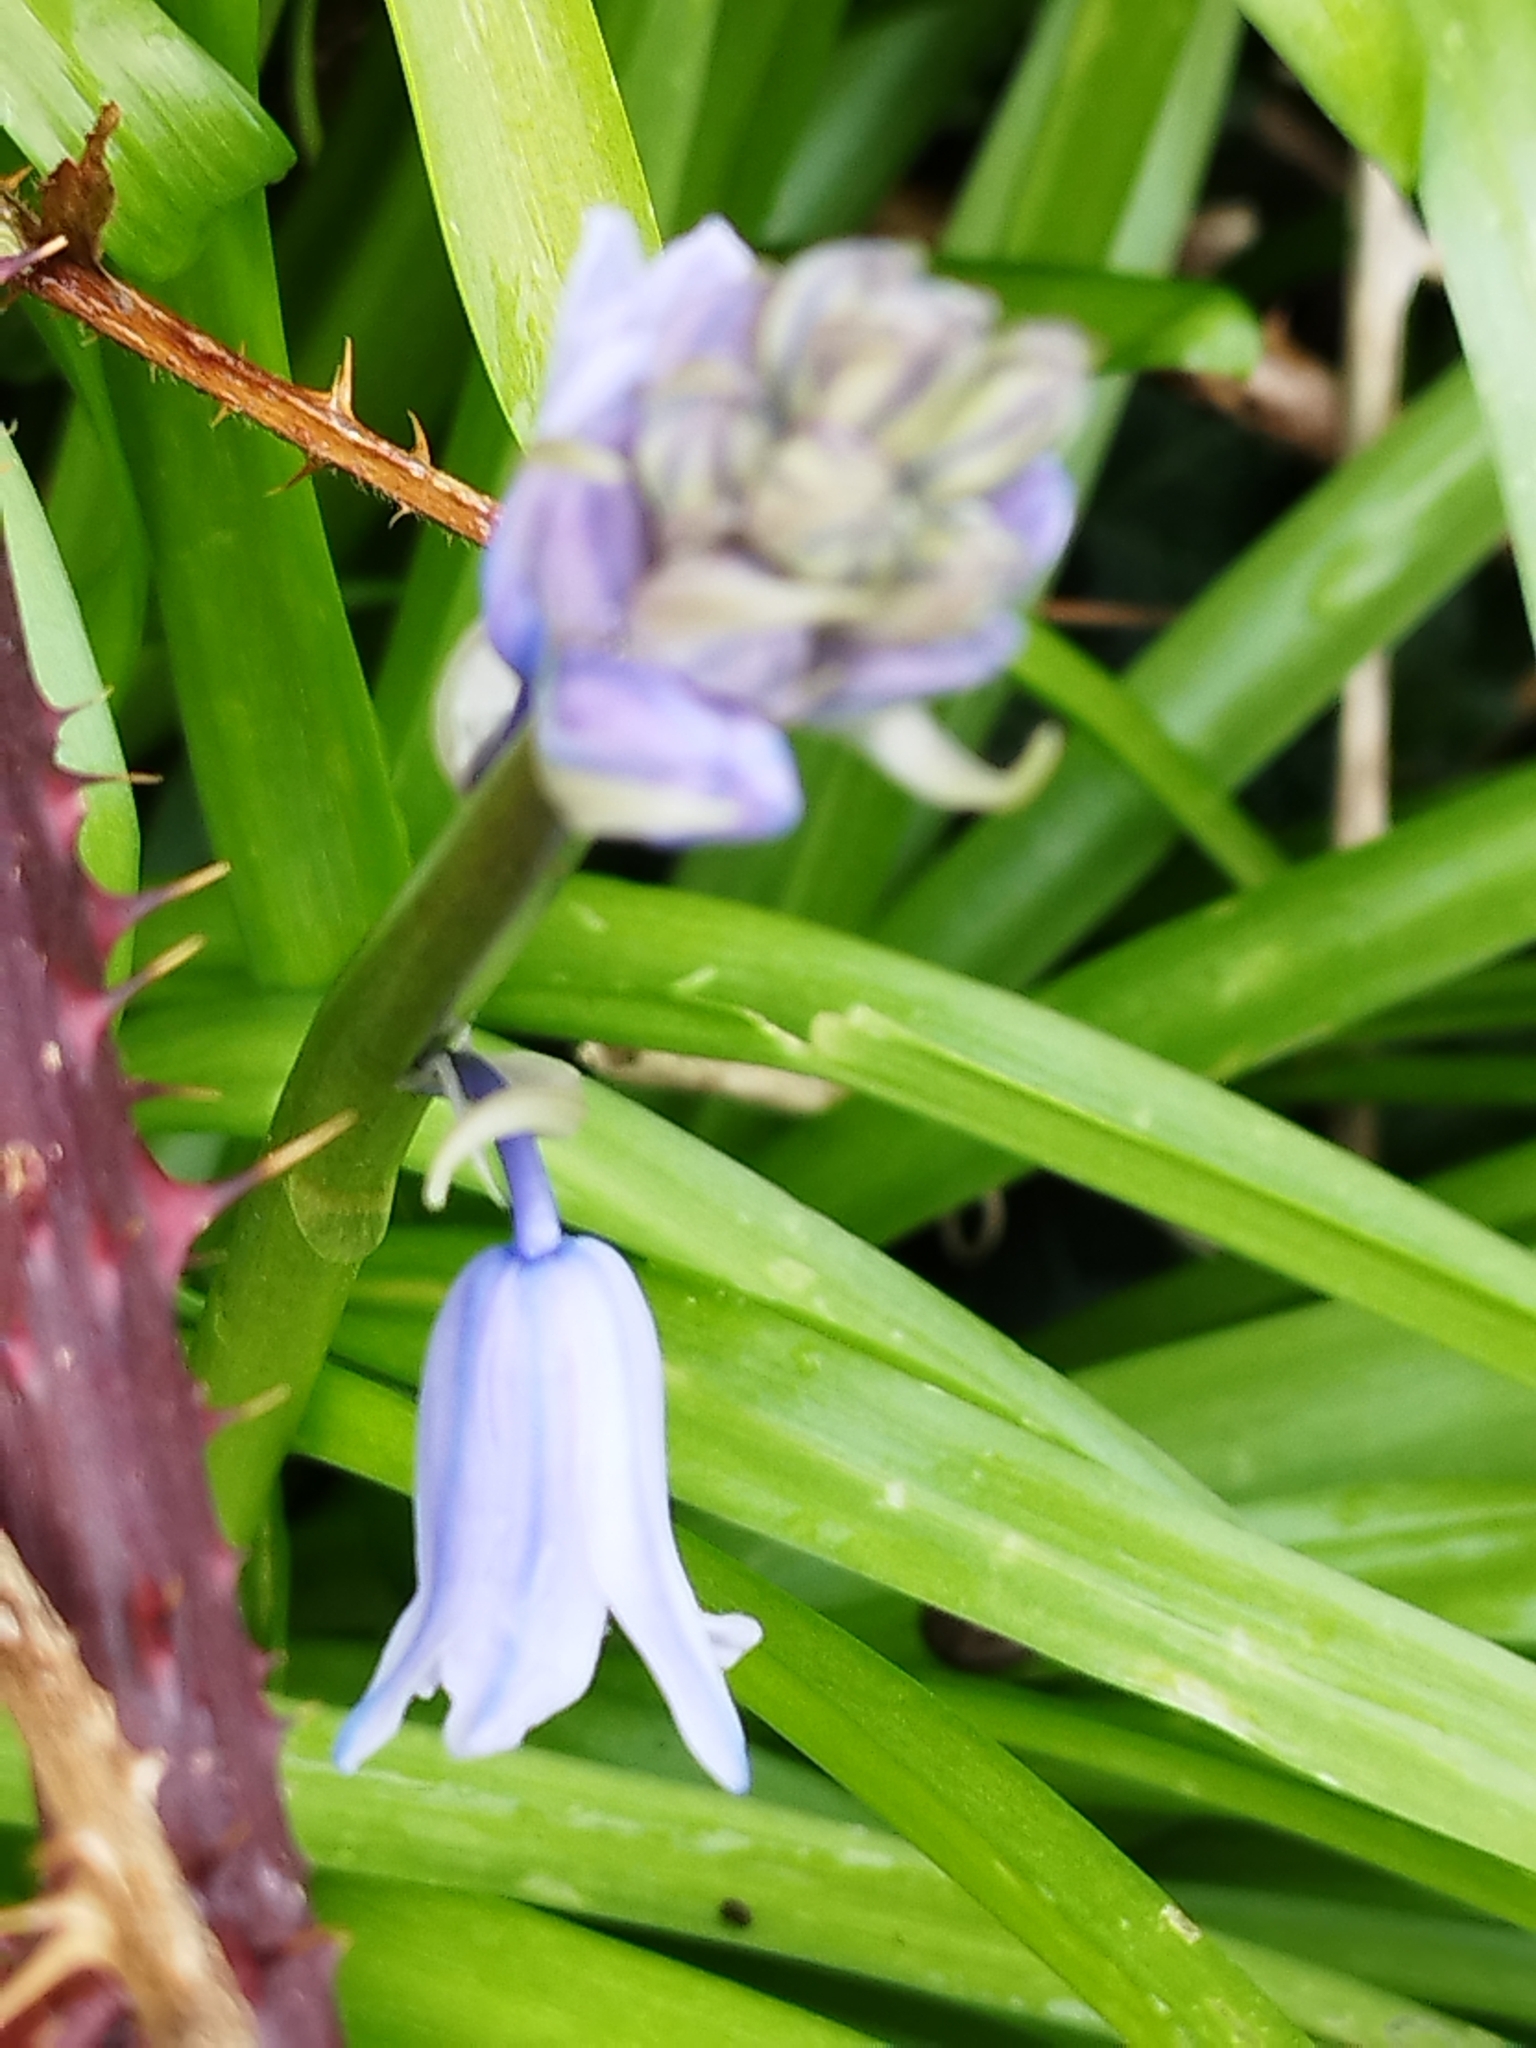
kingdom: Plantae
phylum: Tracheophyta
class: Liliopsida
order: Asparagales
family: Asparagaceae
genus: Hyacinthoides
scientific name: Hyacinthoides hispanica
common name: Spanish bluebell
